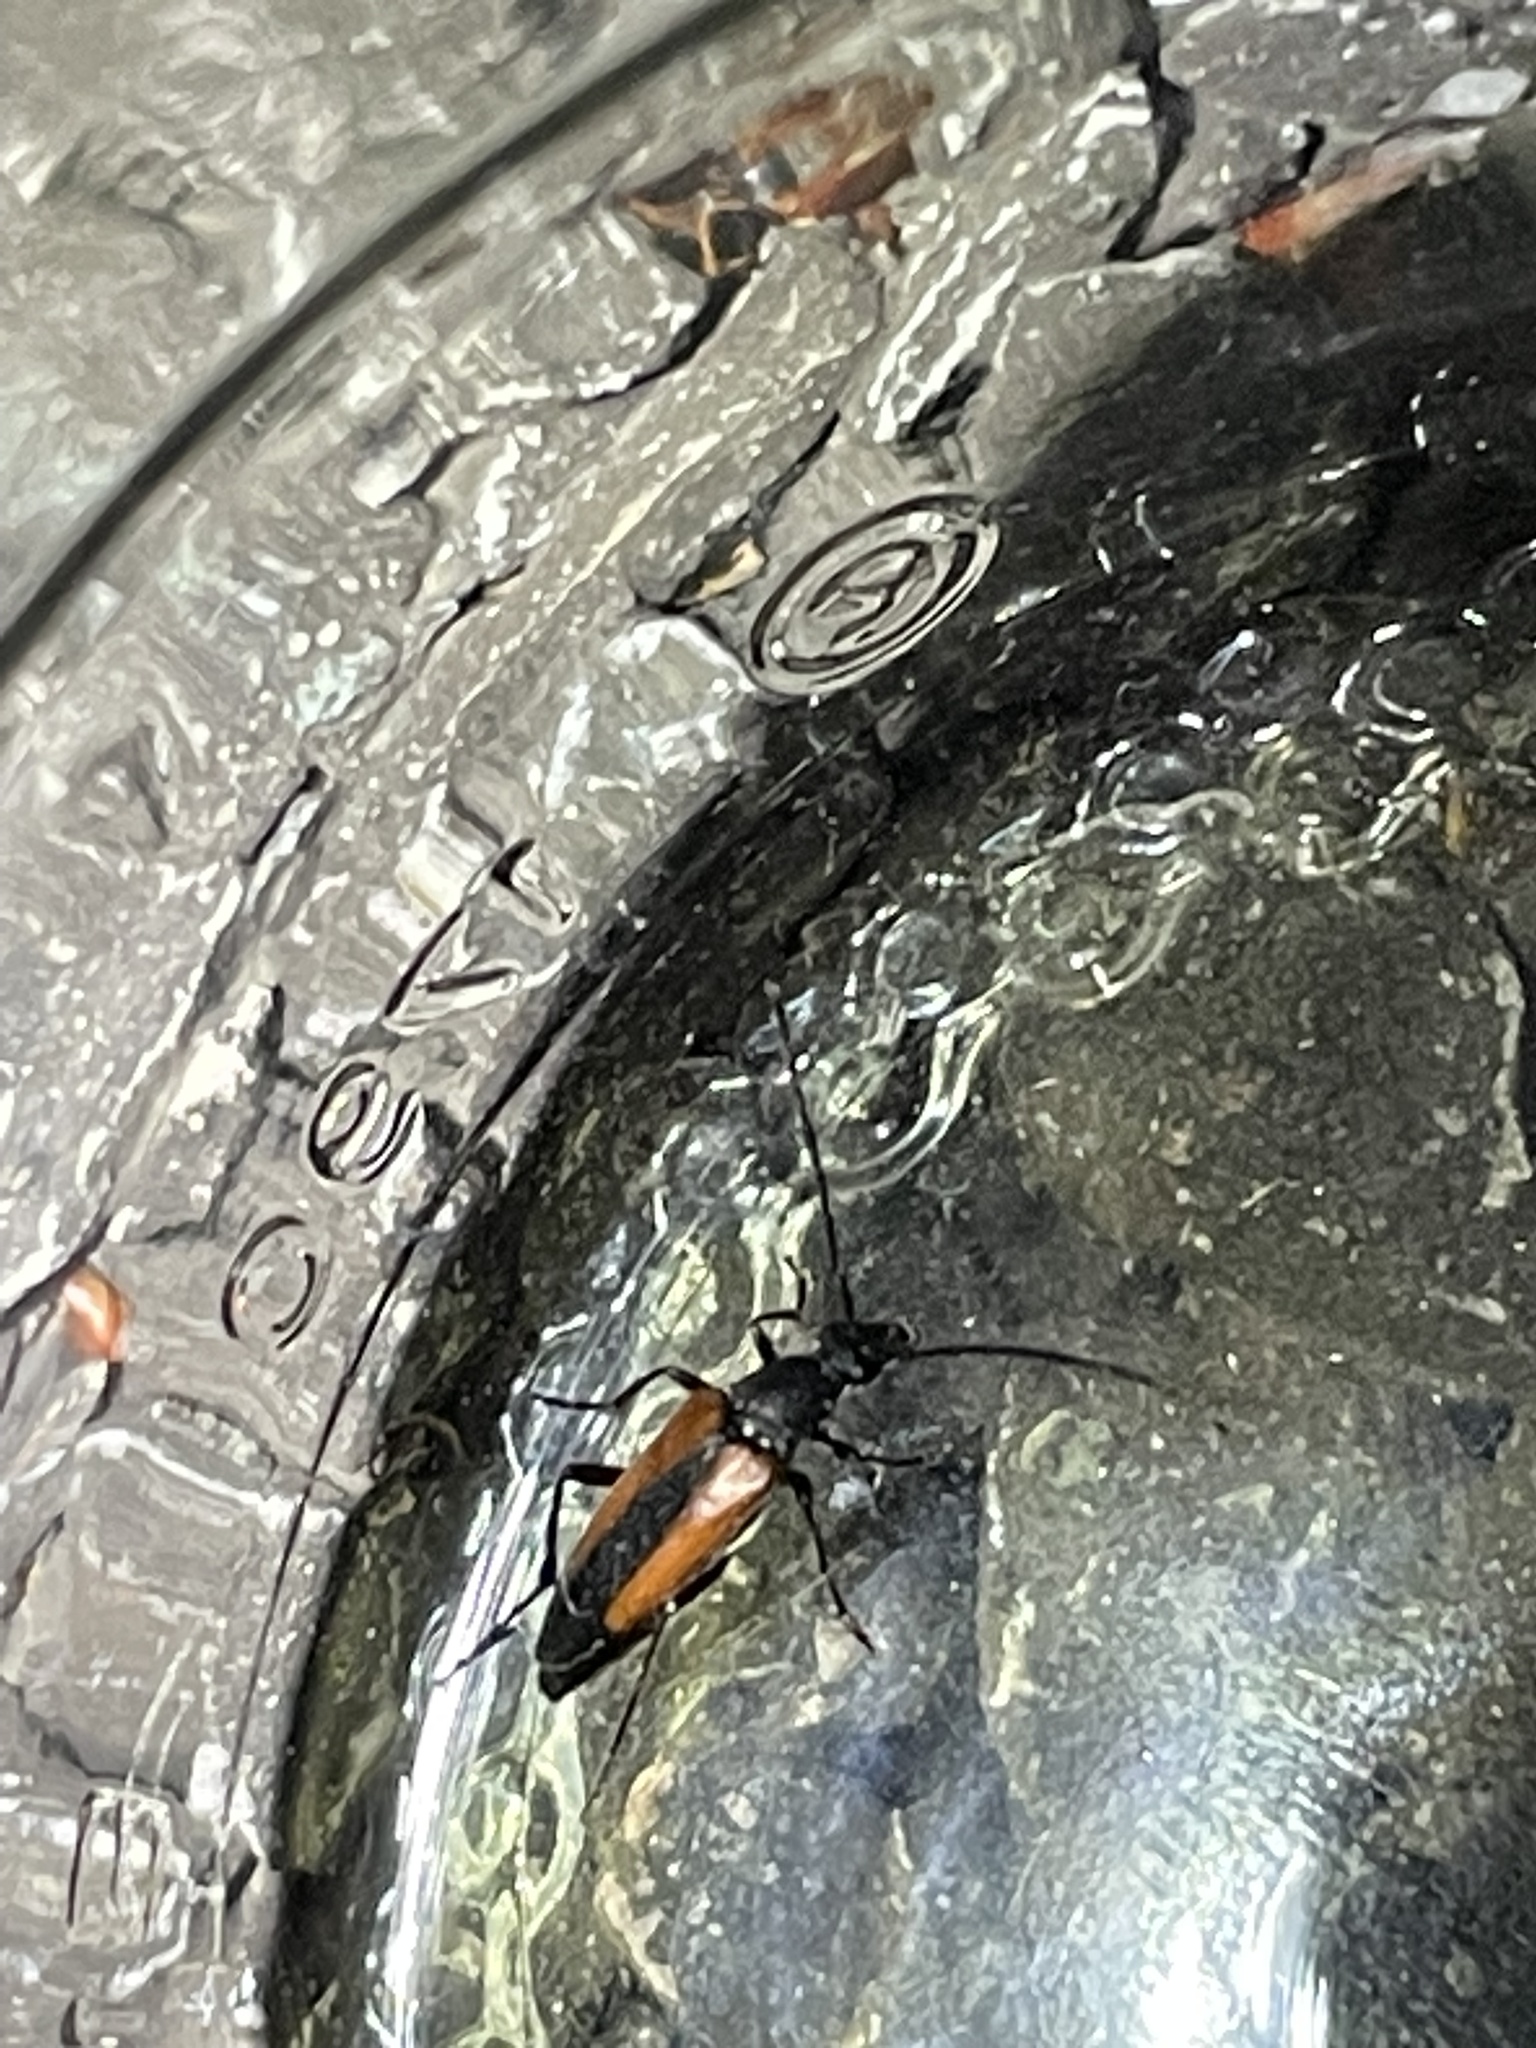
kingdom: Animalia
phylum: Arthropoda
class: Insecta
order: Coleoptera
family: Cerambycidae
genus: Stenurella
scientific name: Stenurella melanura
